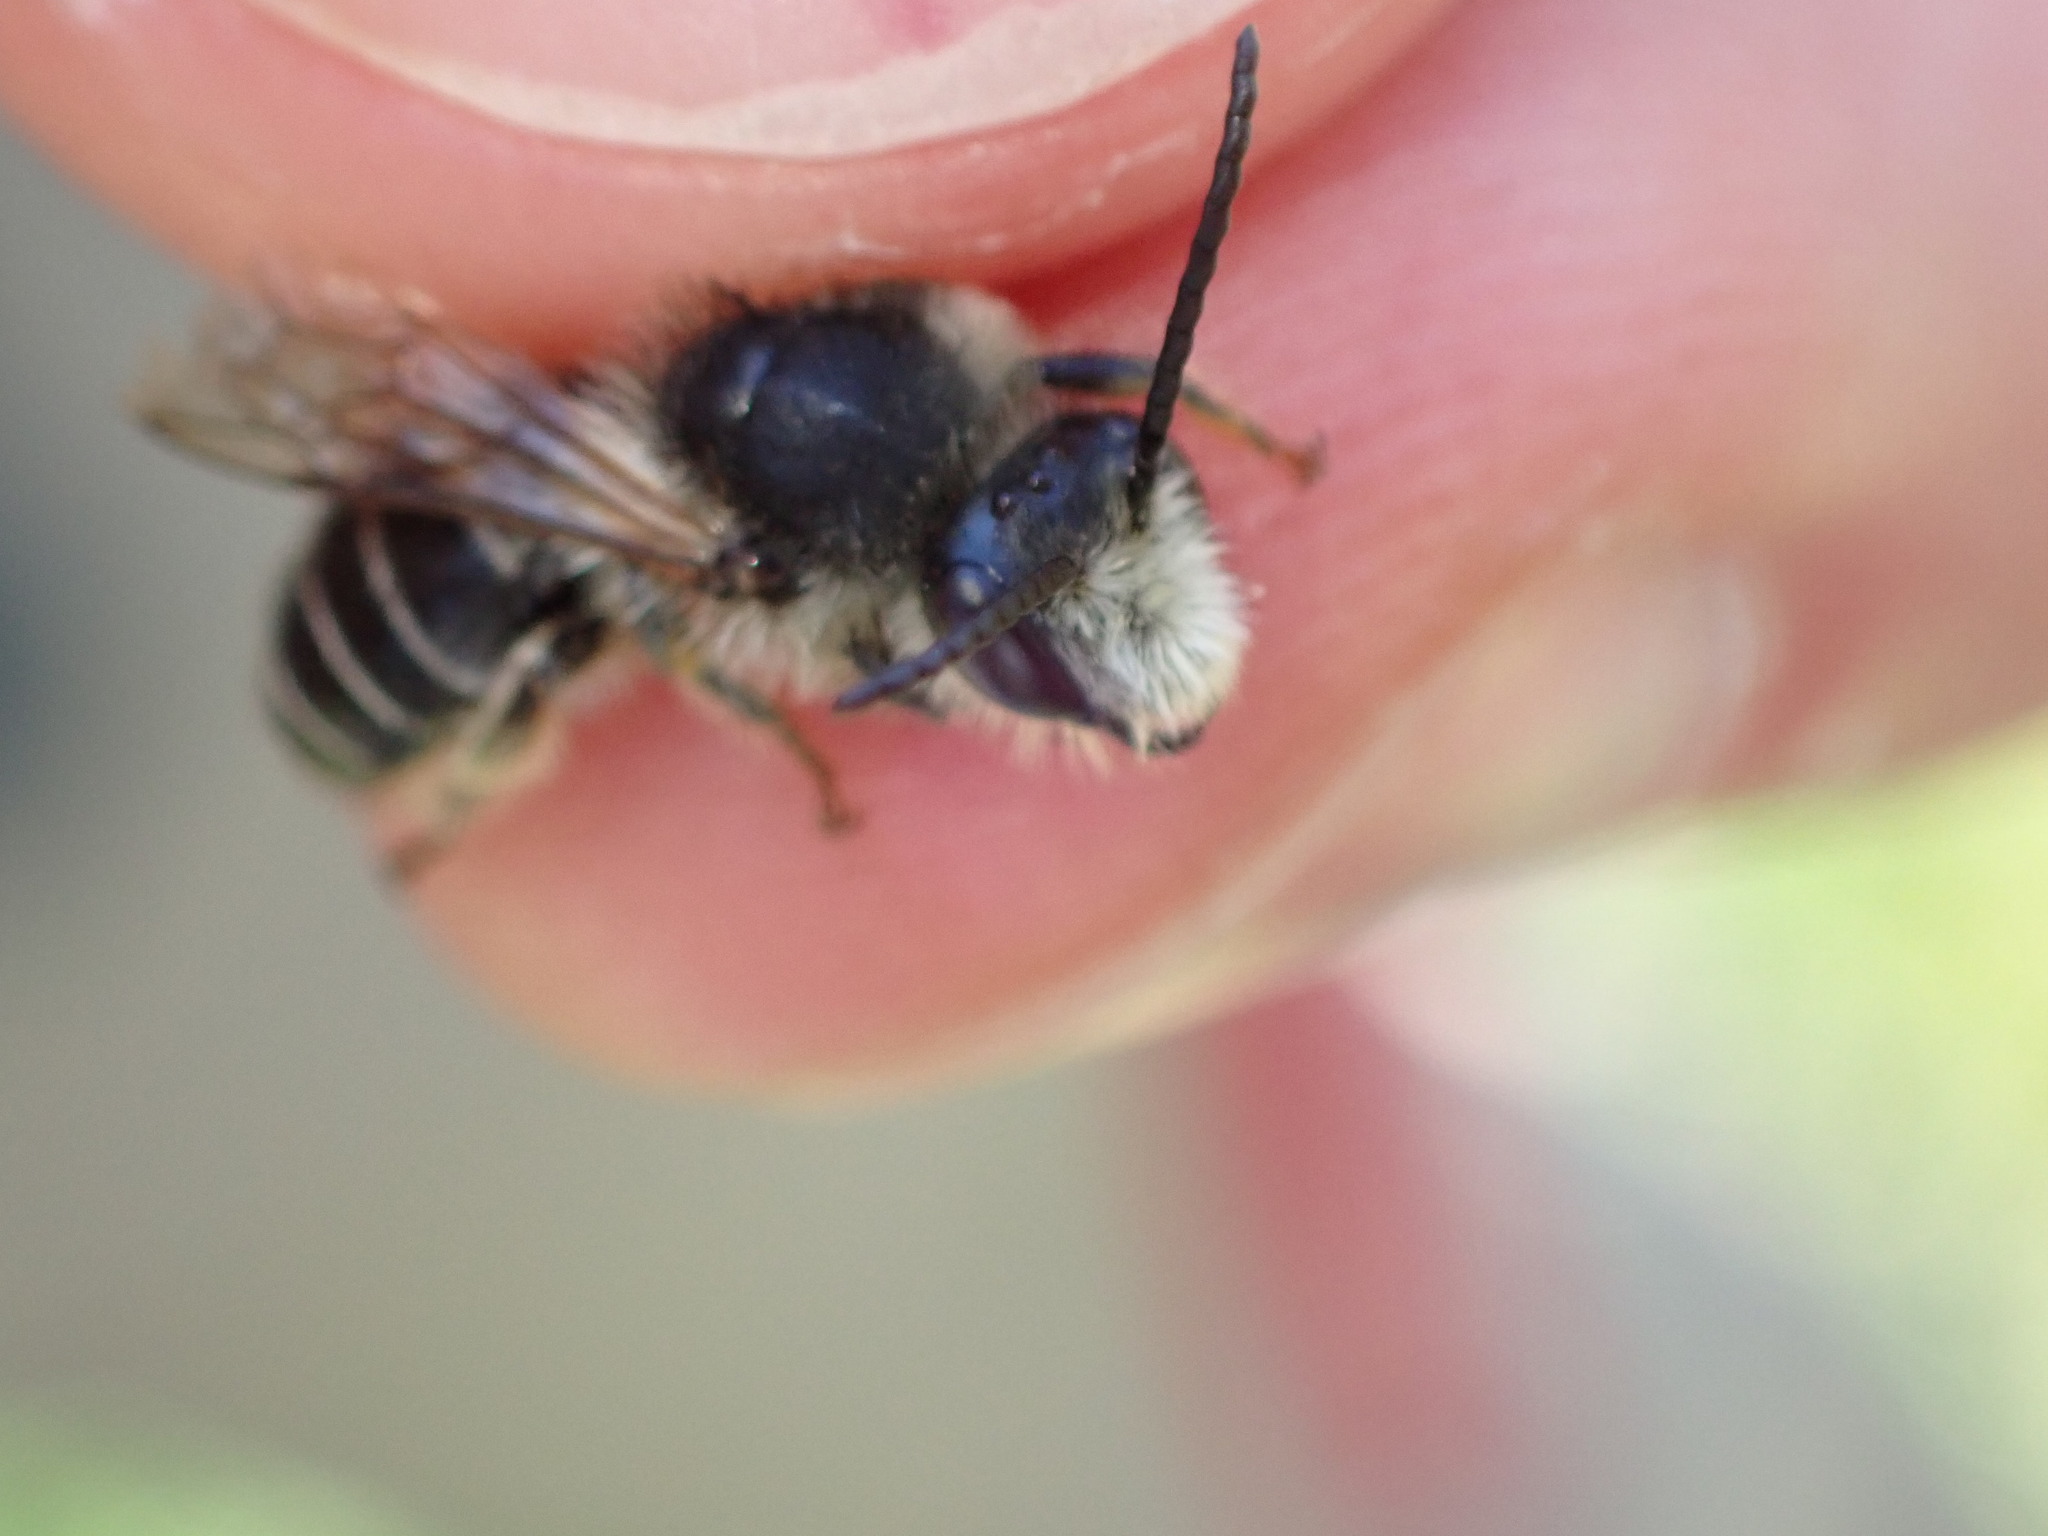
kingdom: Animalia
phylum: Arthropoda
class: Insecta
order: Hymenoptera
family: Melittidae
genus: Melitta
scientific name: Melitta nigricans
